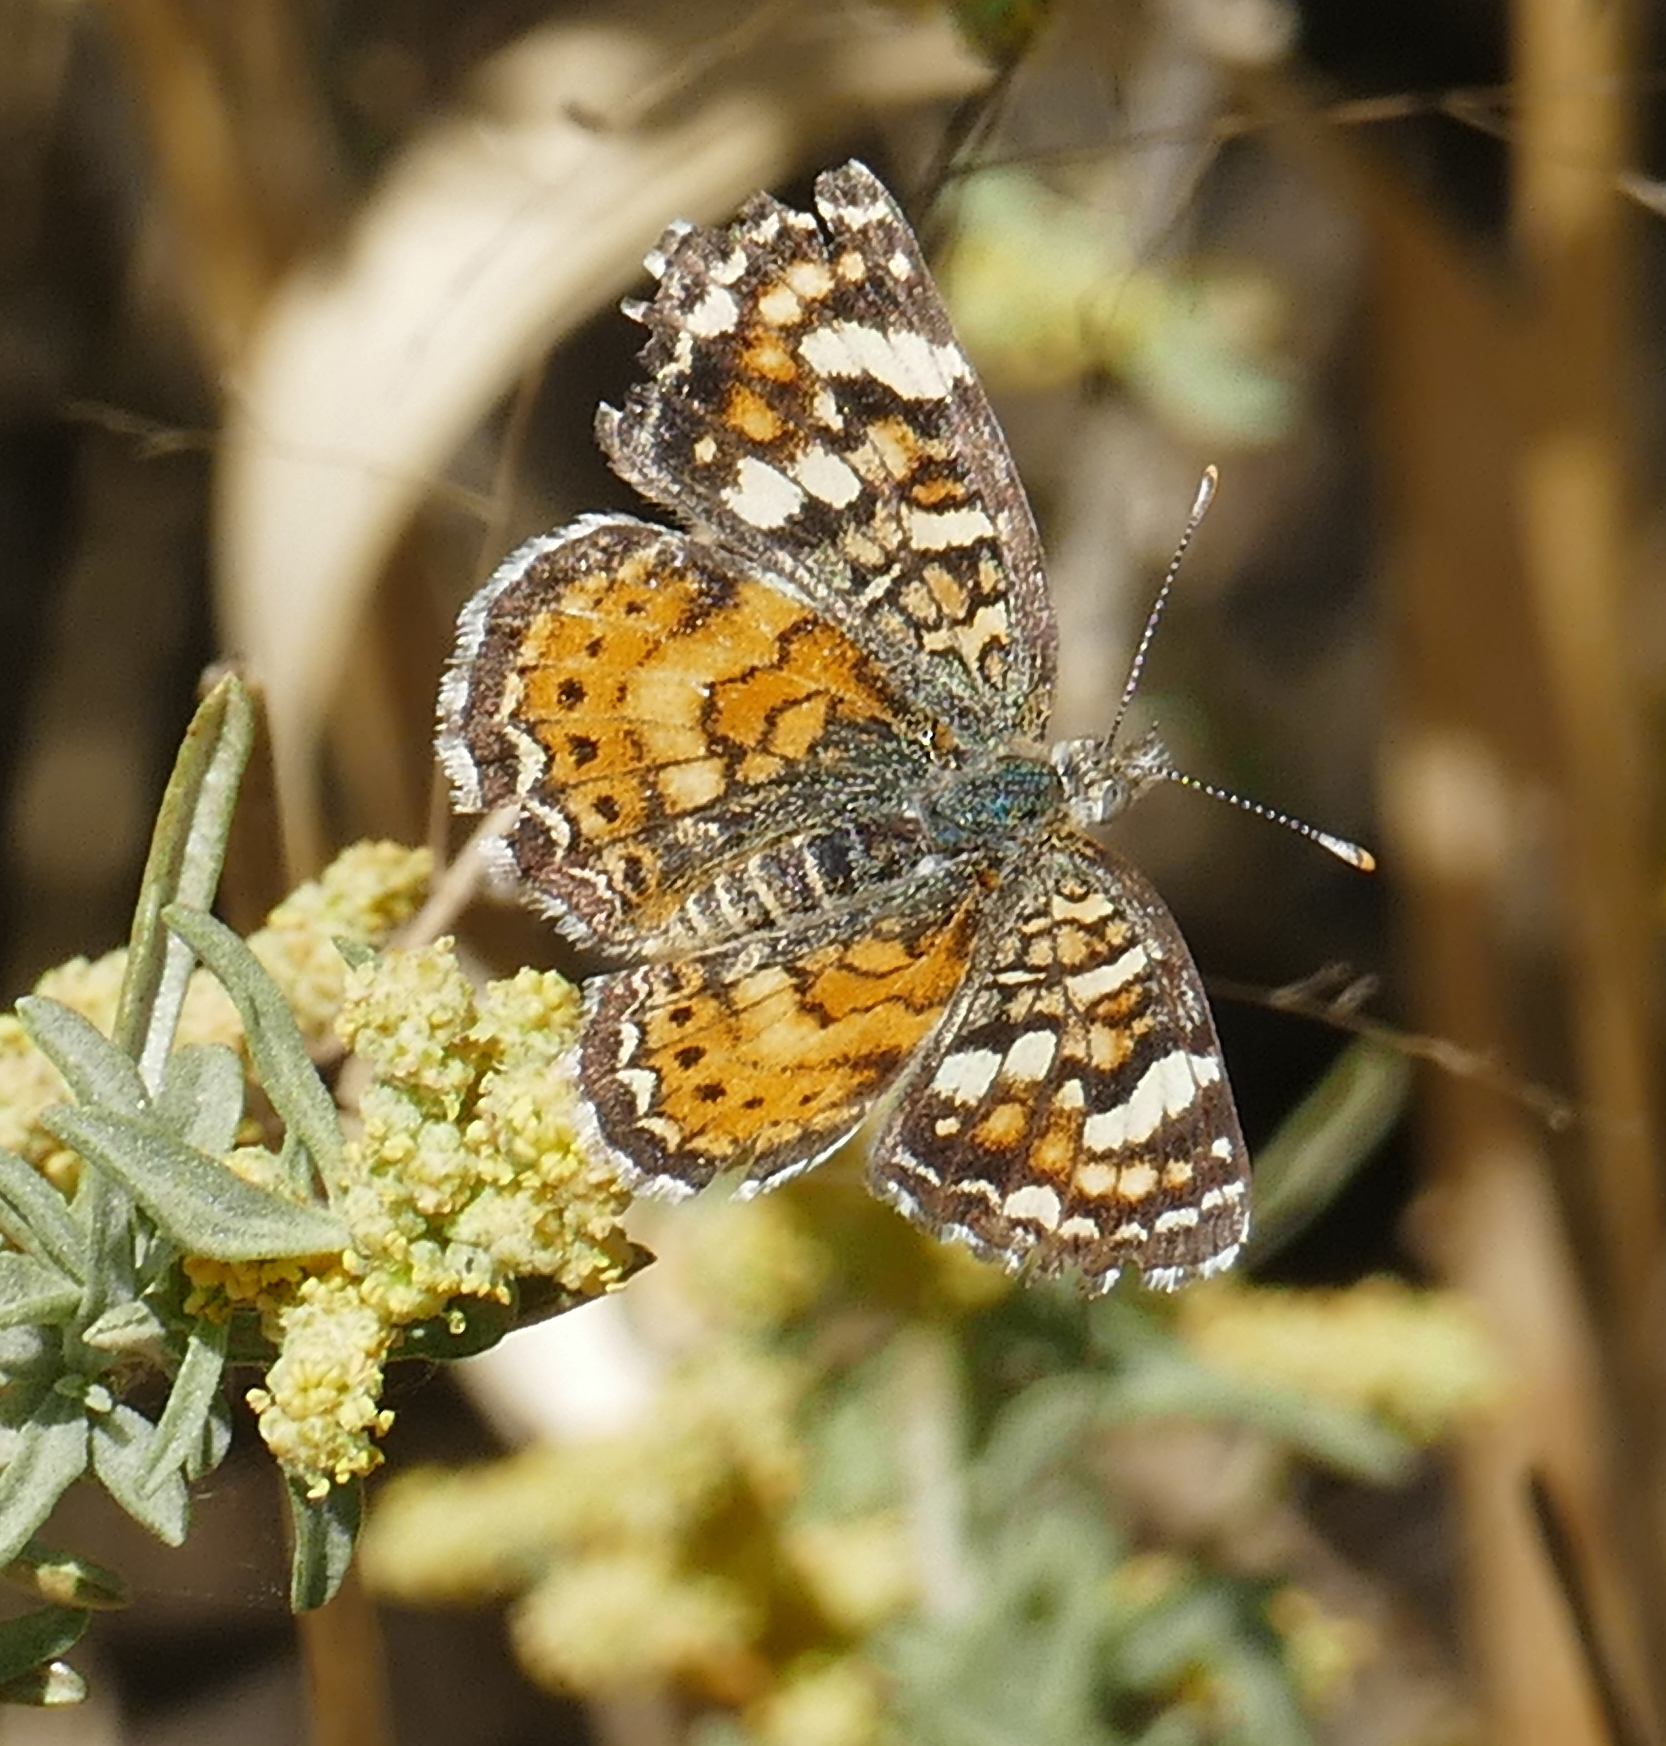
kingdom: Animalia
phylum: Arthropoda
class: Insecta
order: Lepidoptera
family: Nymphalidae
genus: Phyciodes
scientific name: Phyciodes picta
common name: Painted crescent
